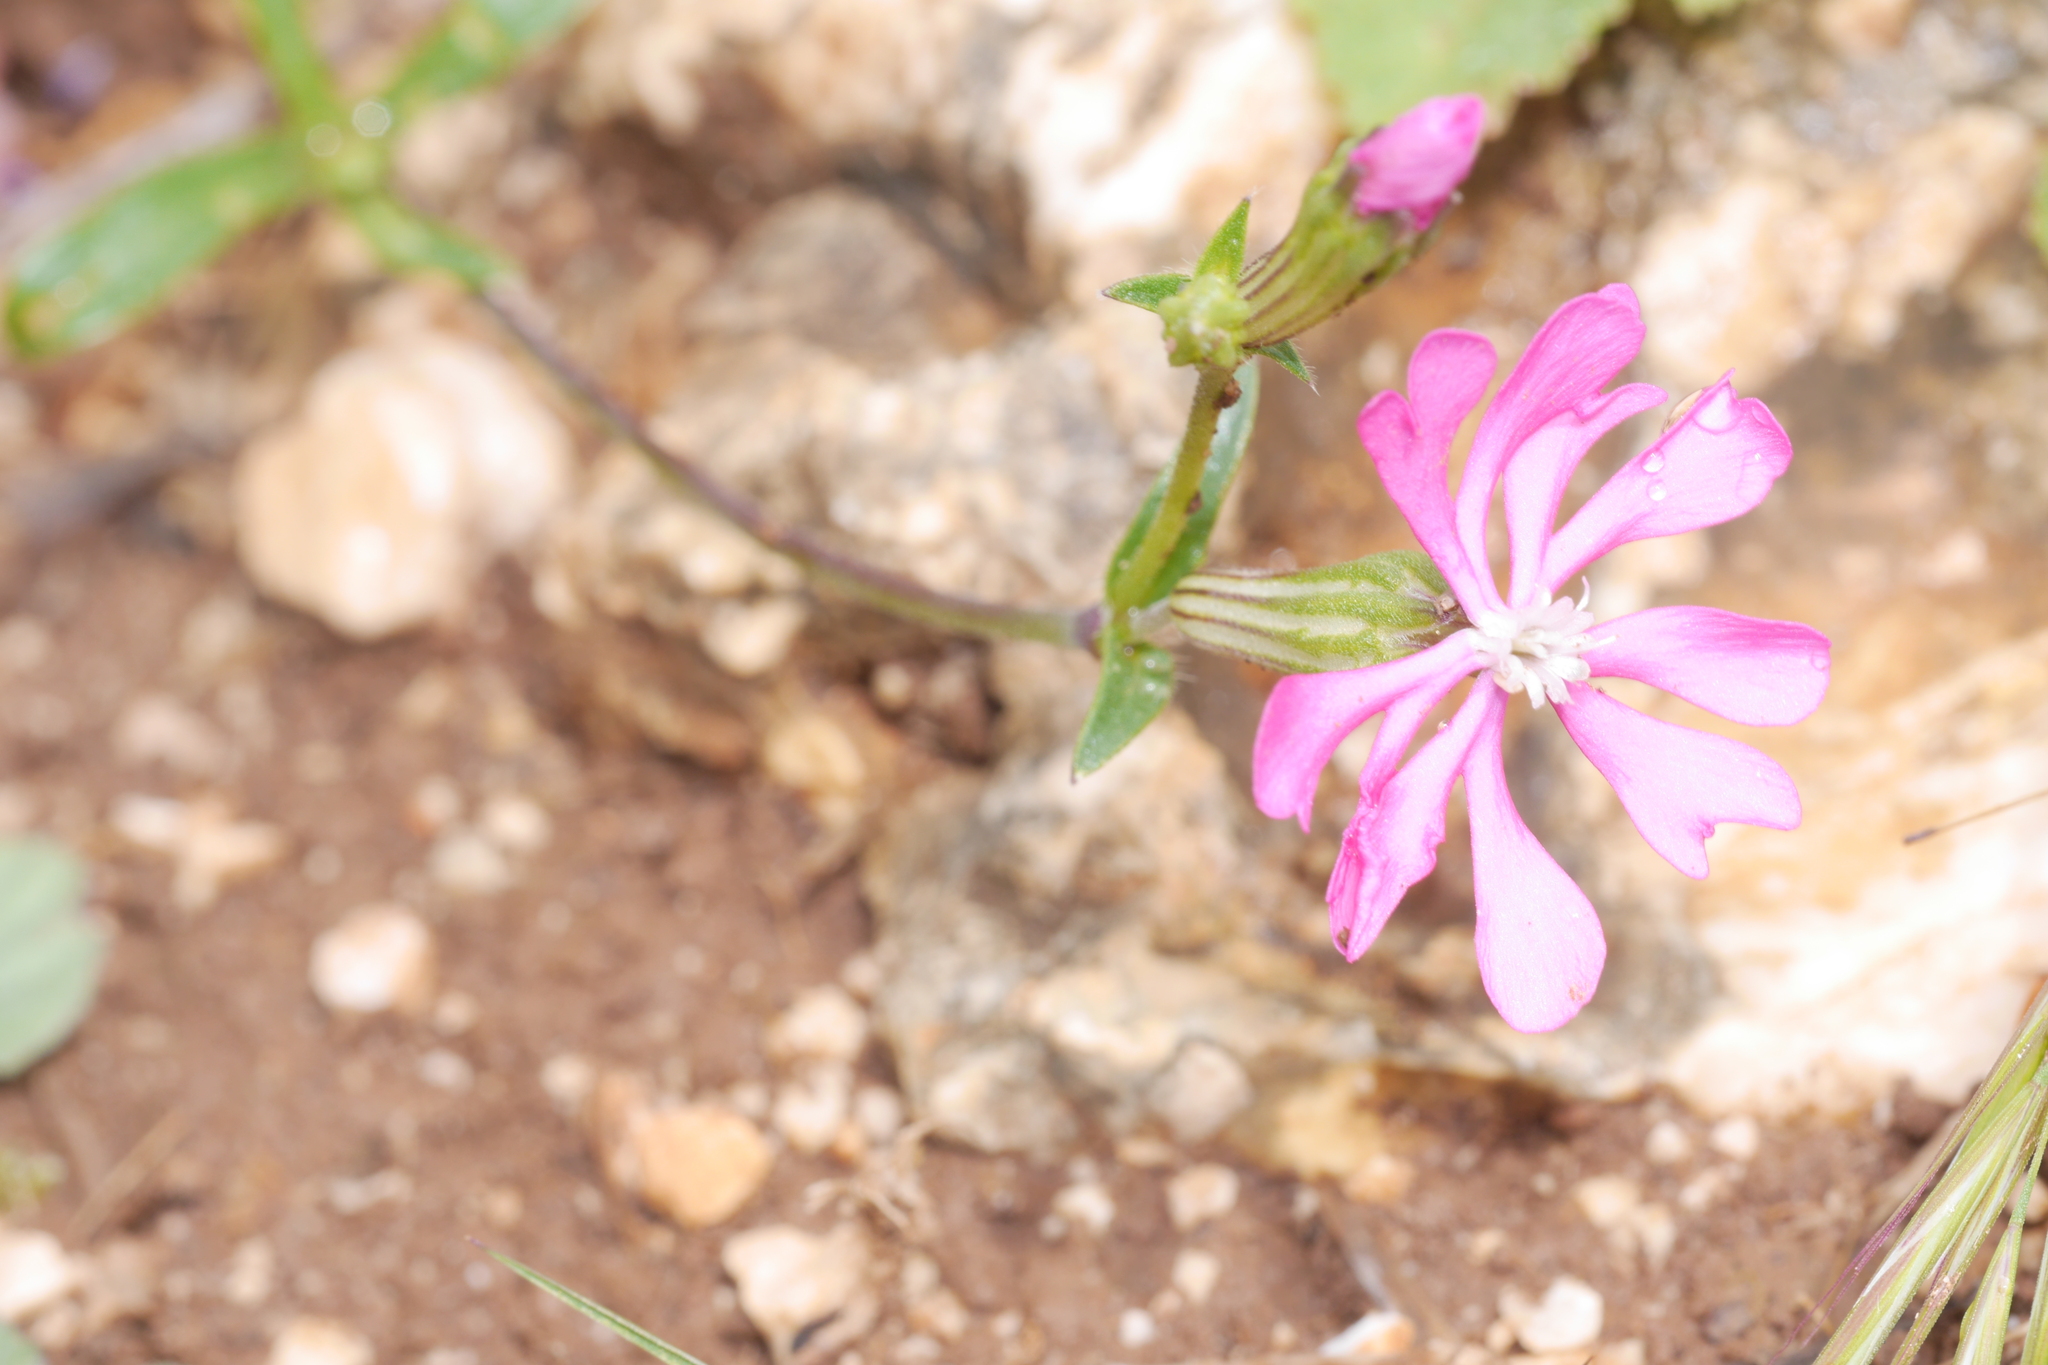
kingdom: Plantae
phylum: Tracheophyta
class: Magnoliopsida
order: Caryophyllales
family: Caryophyllaceae
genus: Silene
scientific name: Silene colorata
